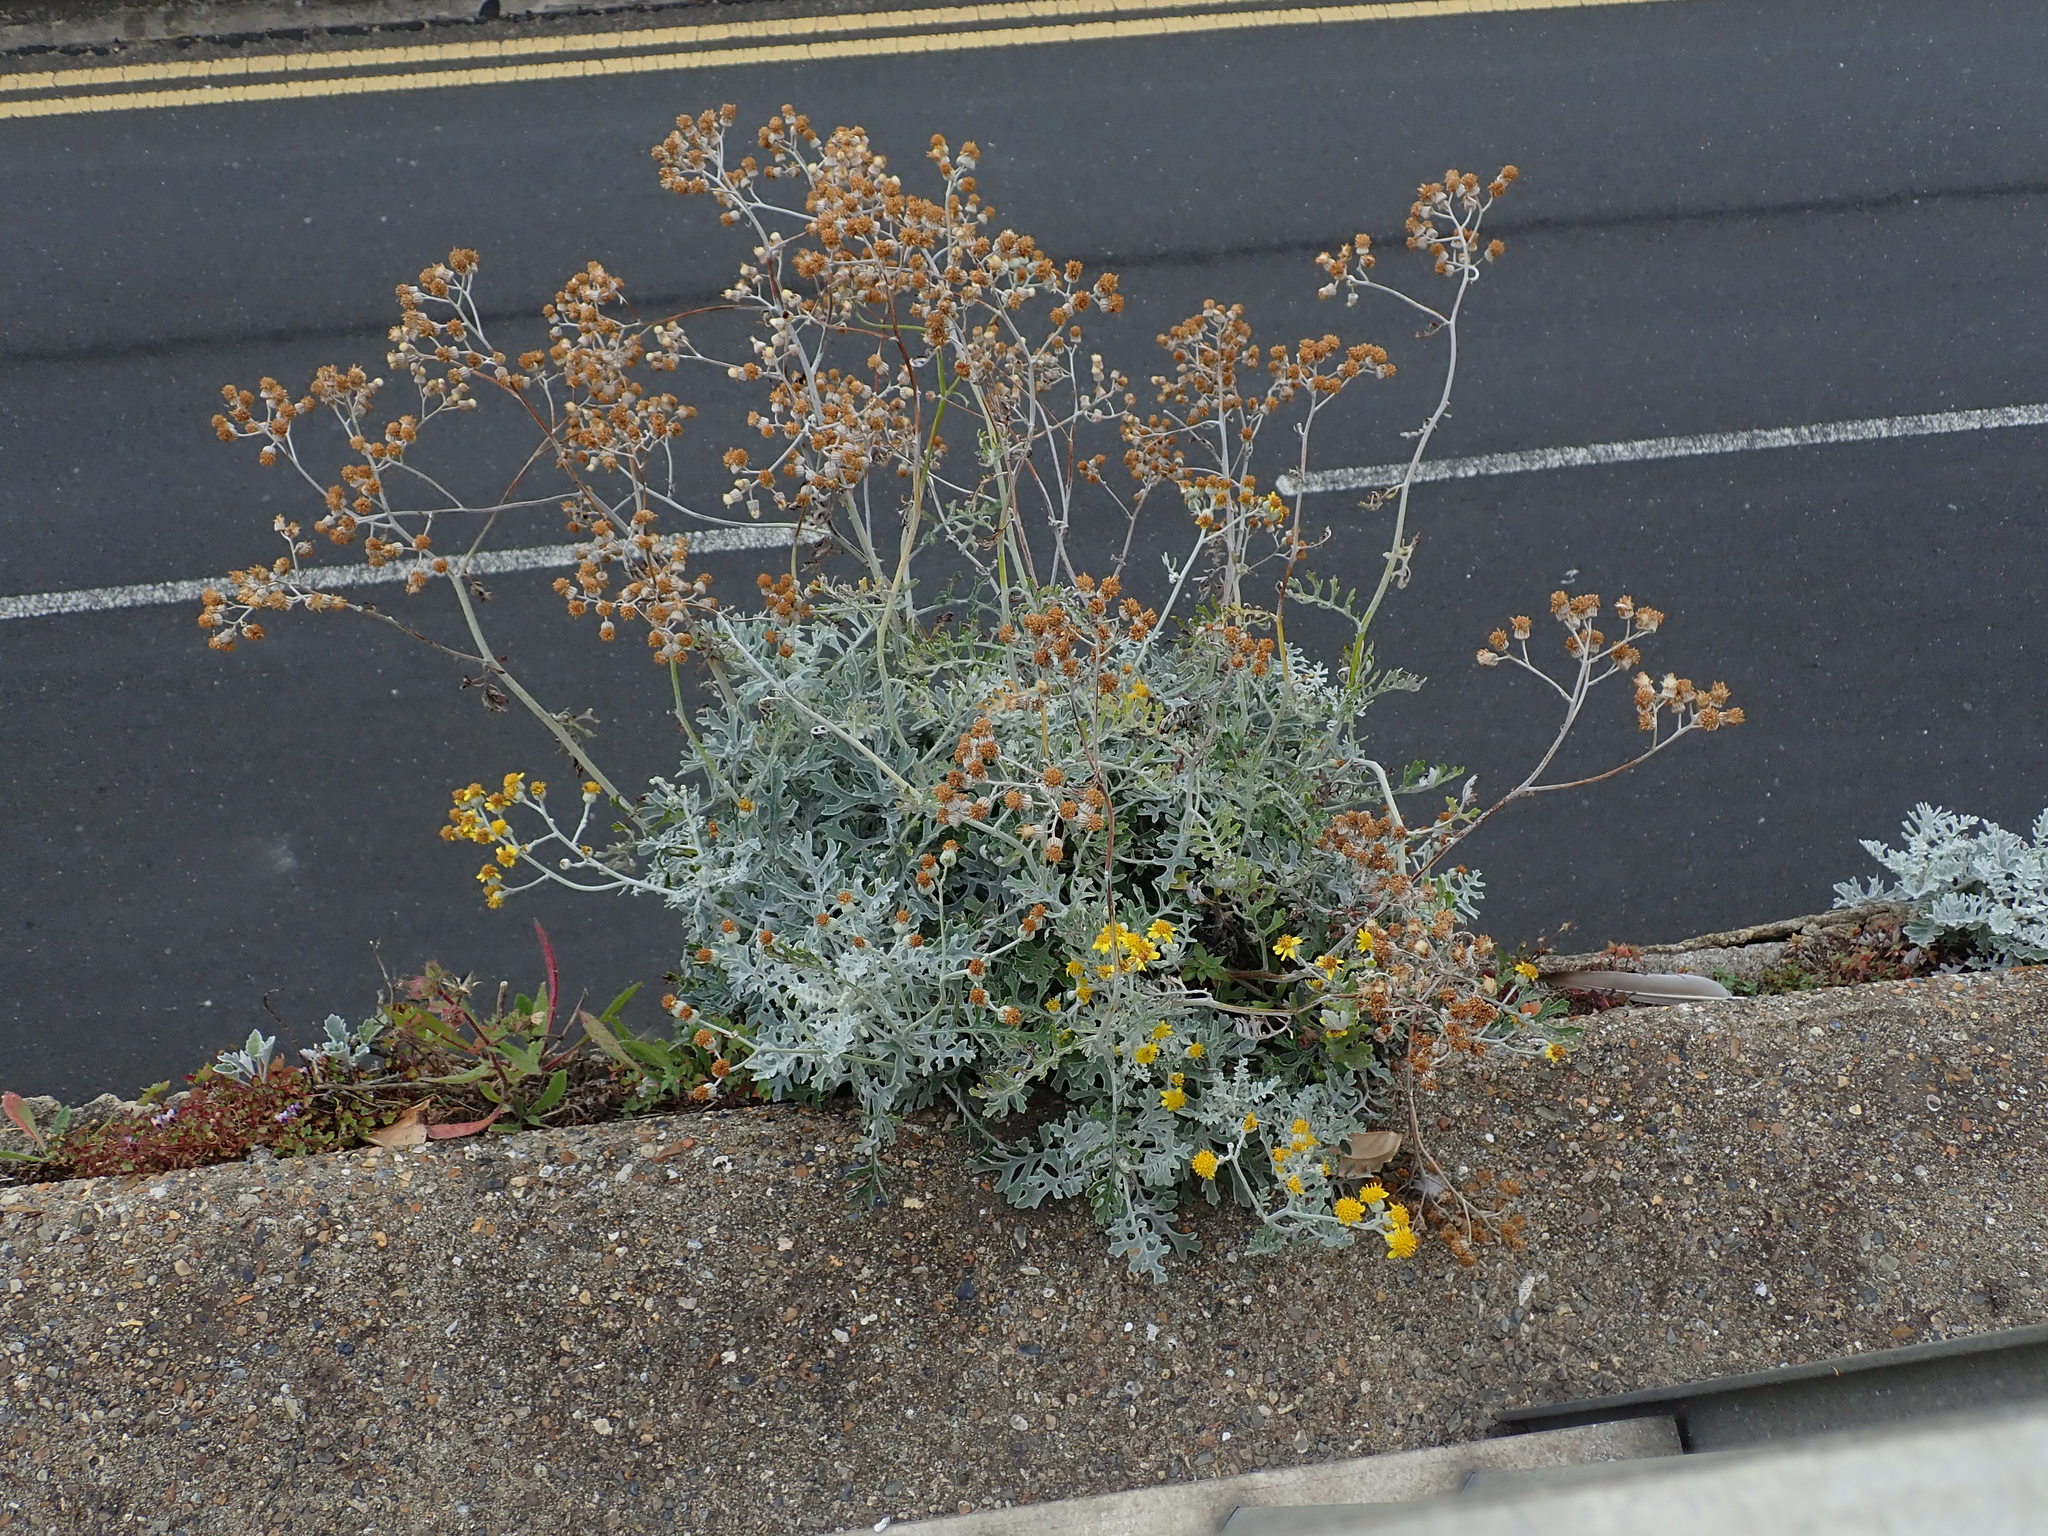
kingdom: Plantae
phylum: Tracheophyta
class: Magnoliopsida
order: Asterales
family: Asteraceae
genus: Jacobaea
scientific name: Jacobaea maritima
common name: Silver ragwort
